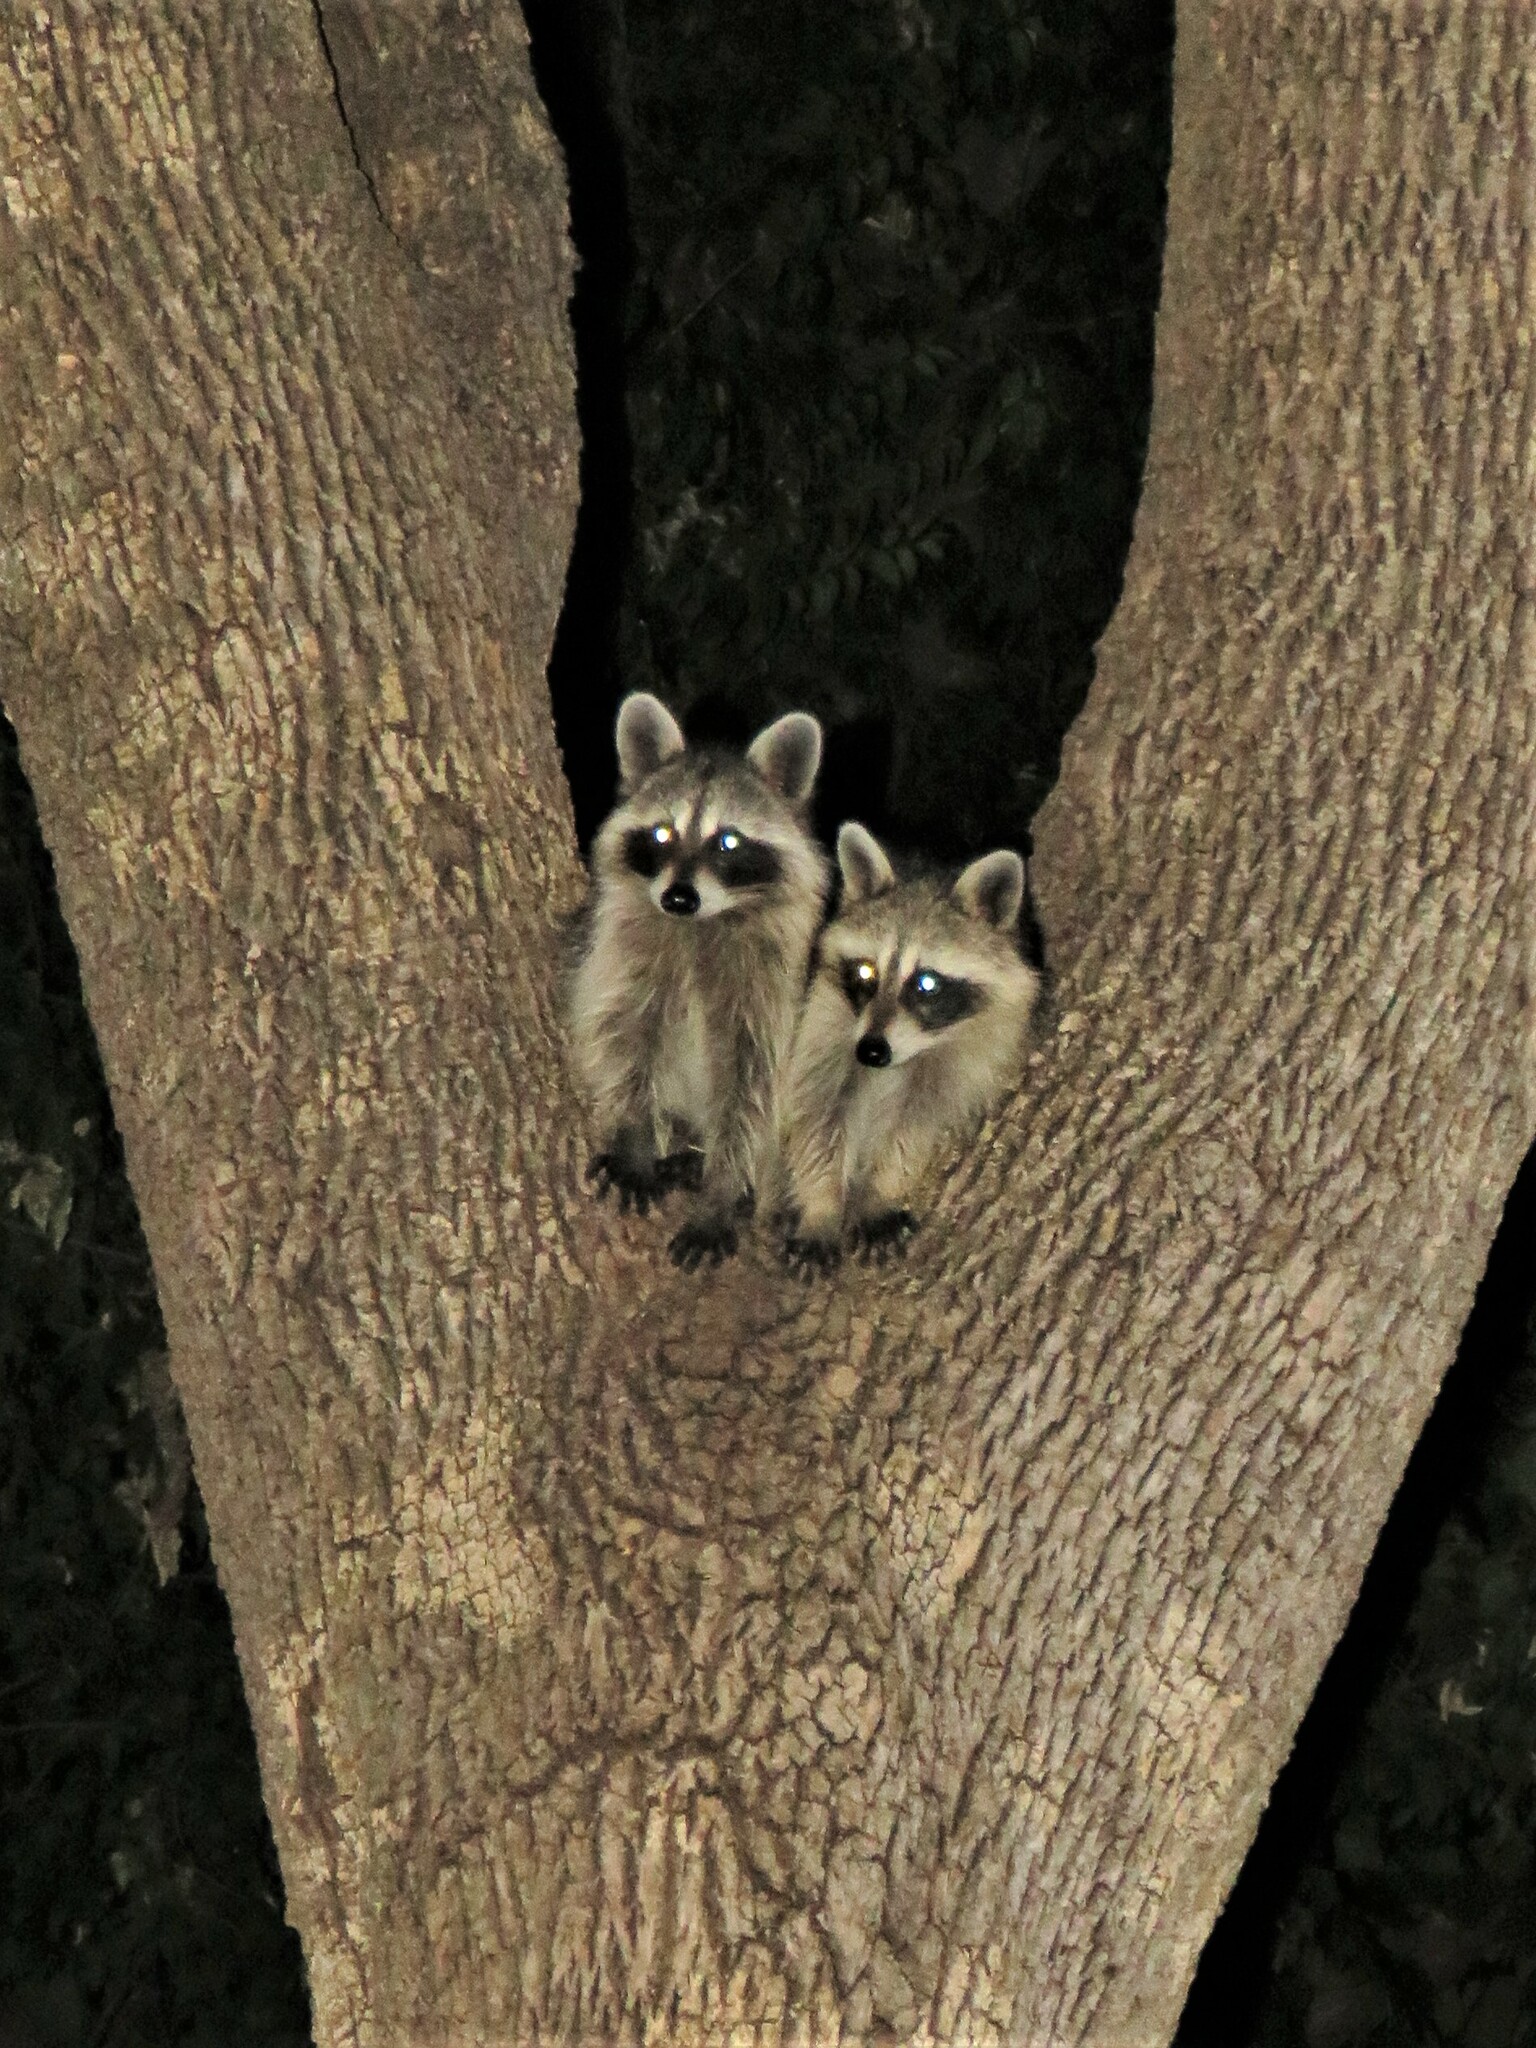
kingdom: Animalia
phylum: Chordata
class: Mammalia
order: Carnivora
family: Procyonidae
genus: Procyon
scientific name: Procyon lotor
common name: Raccoon
